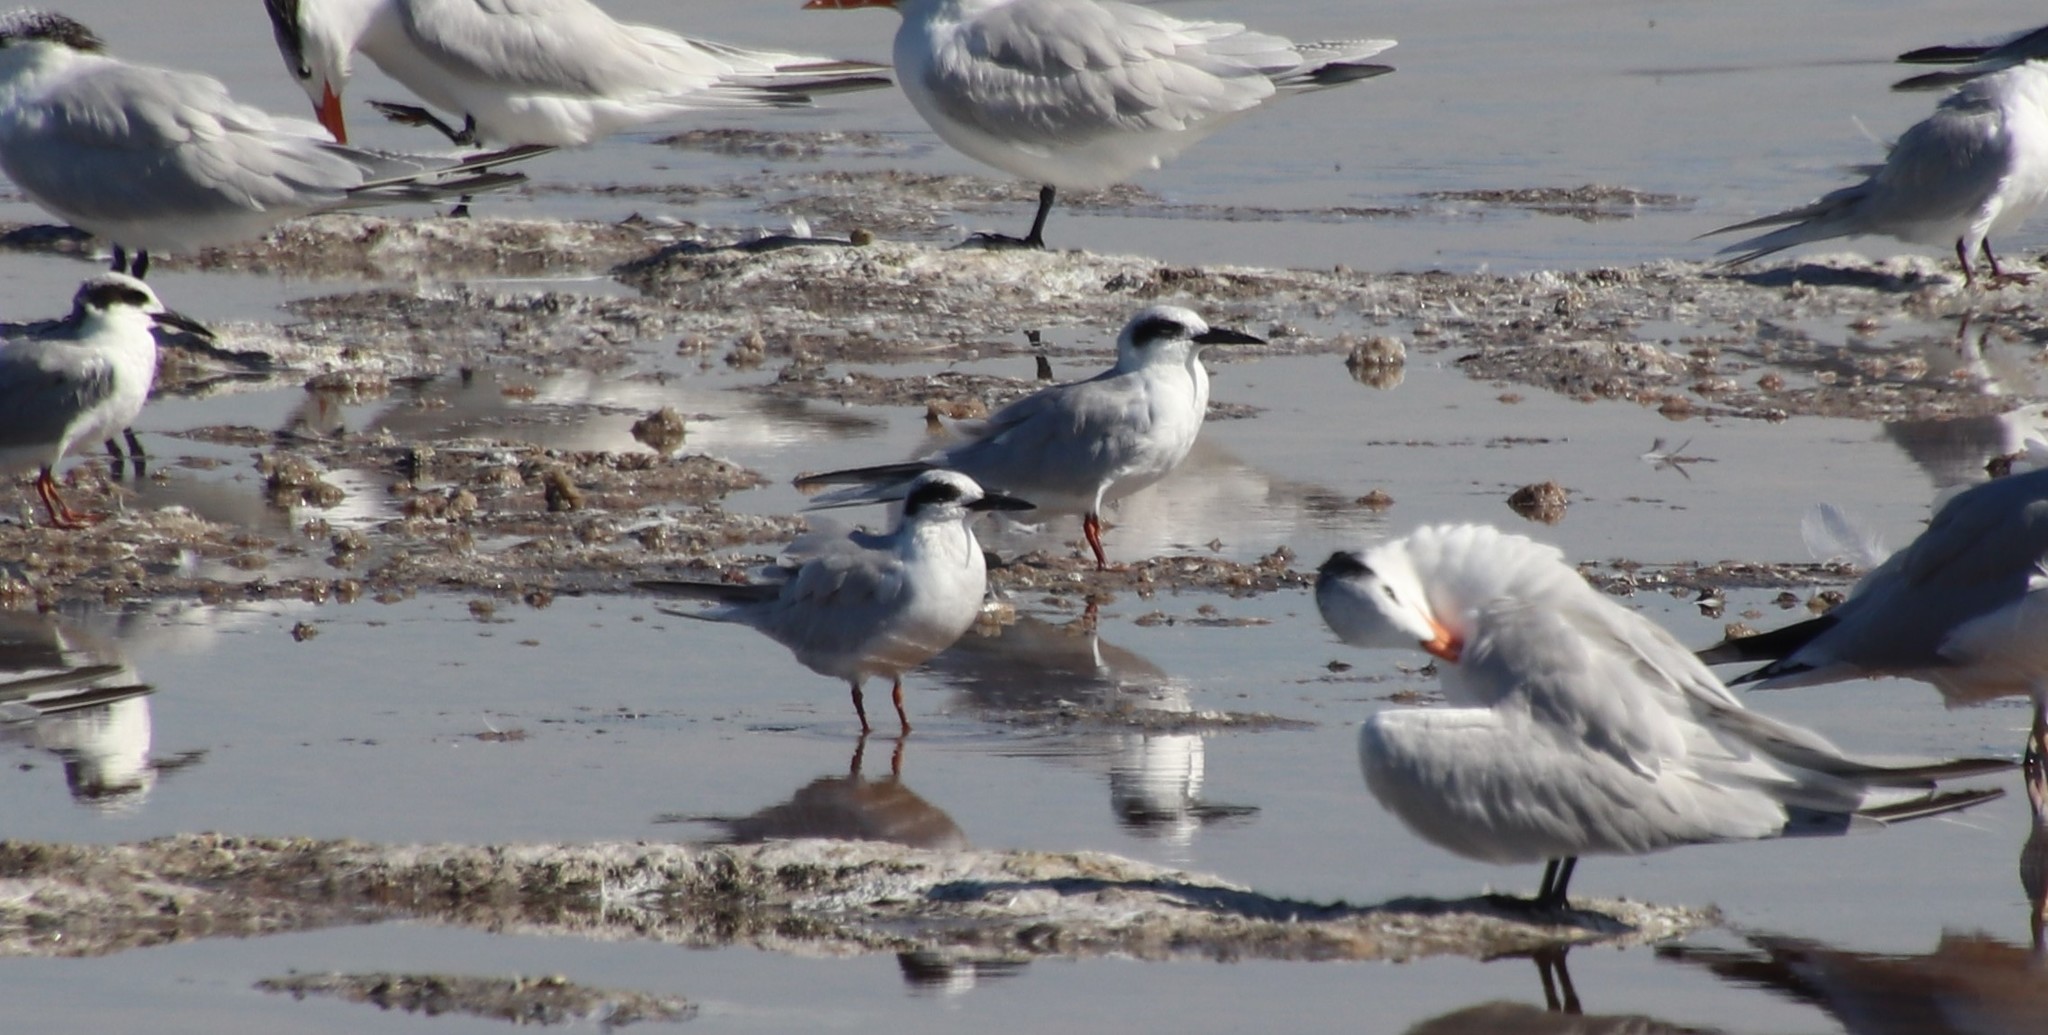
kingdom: Animalia
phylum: Chordata
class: Aves
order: Charadriiformes
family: Laridae
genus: Sterna
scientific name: Sterna forsteri
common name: Forster's tern
